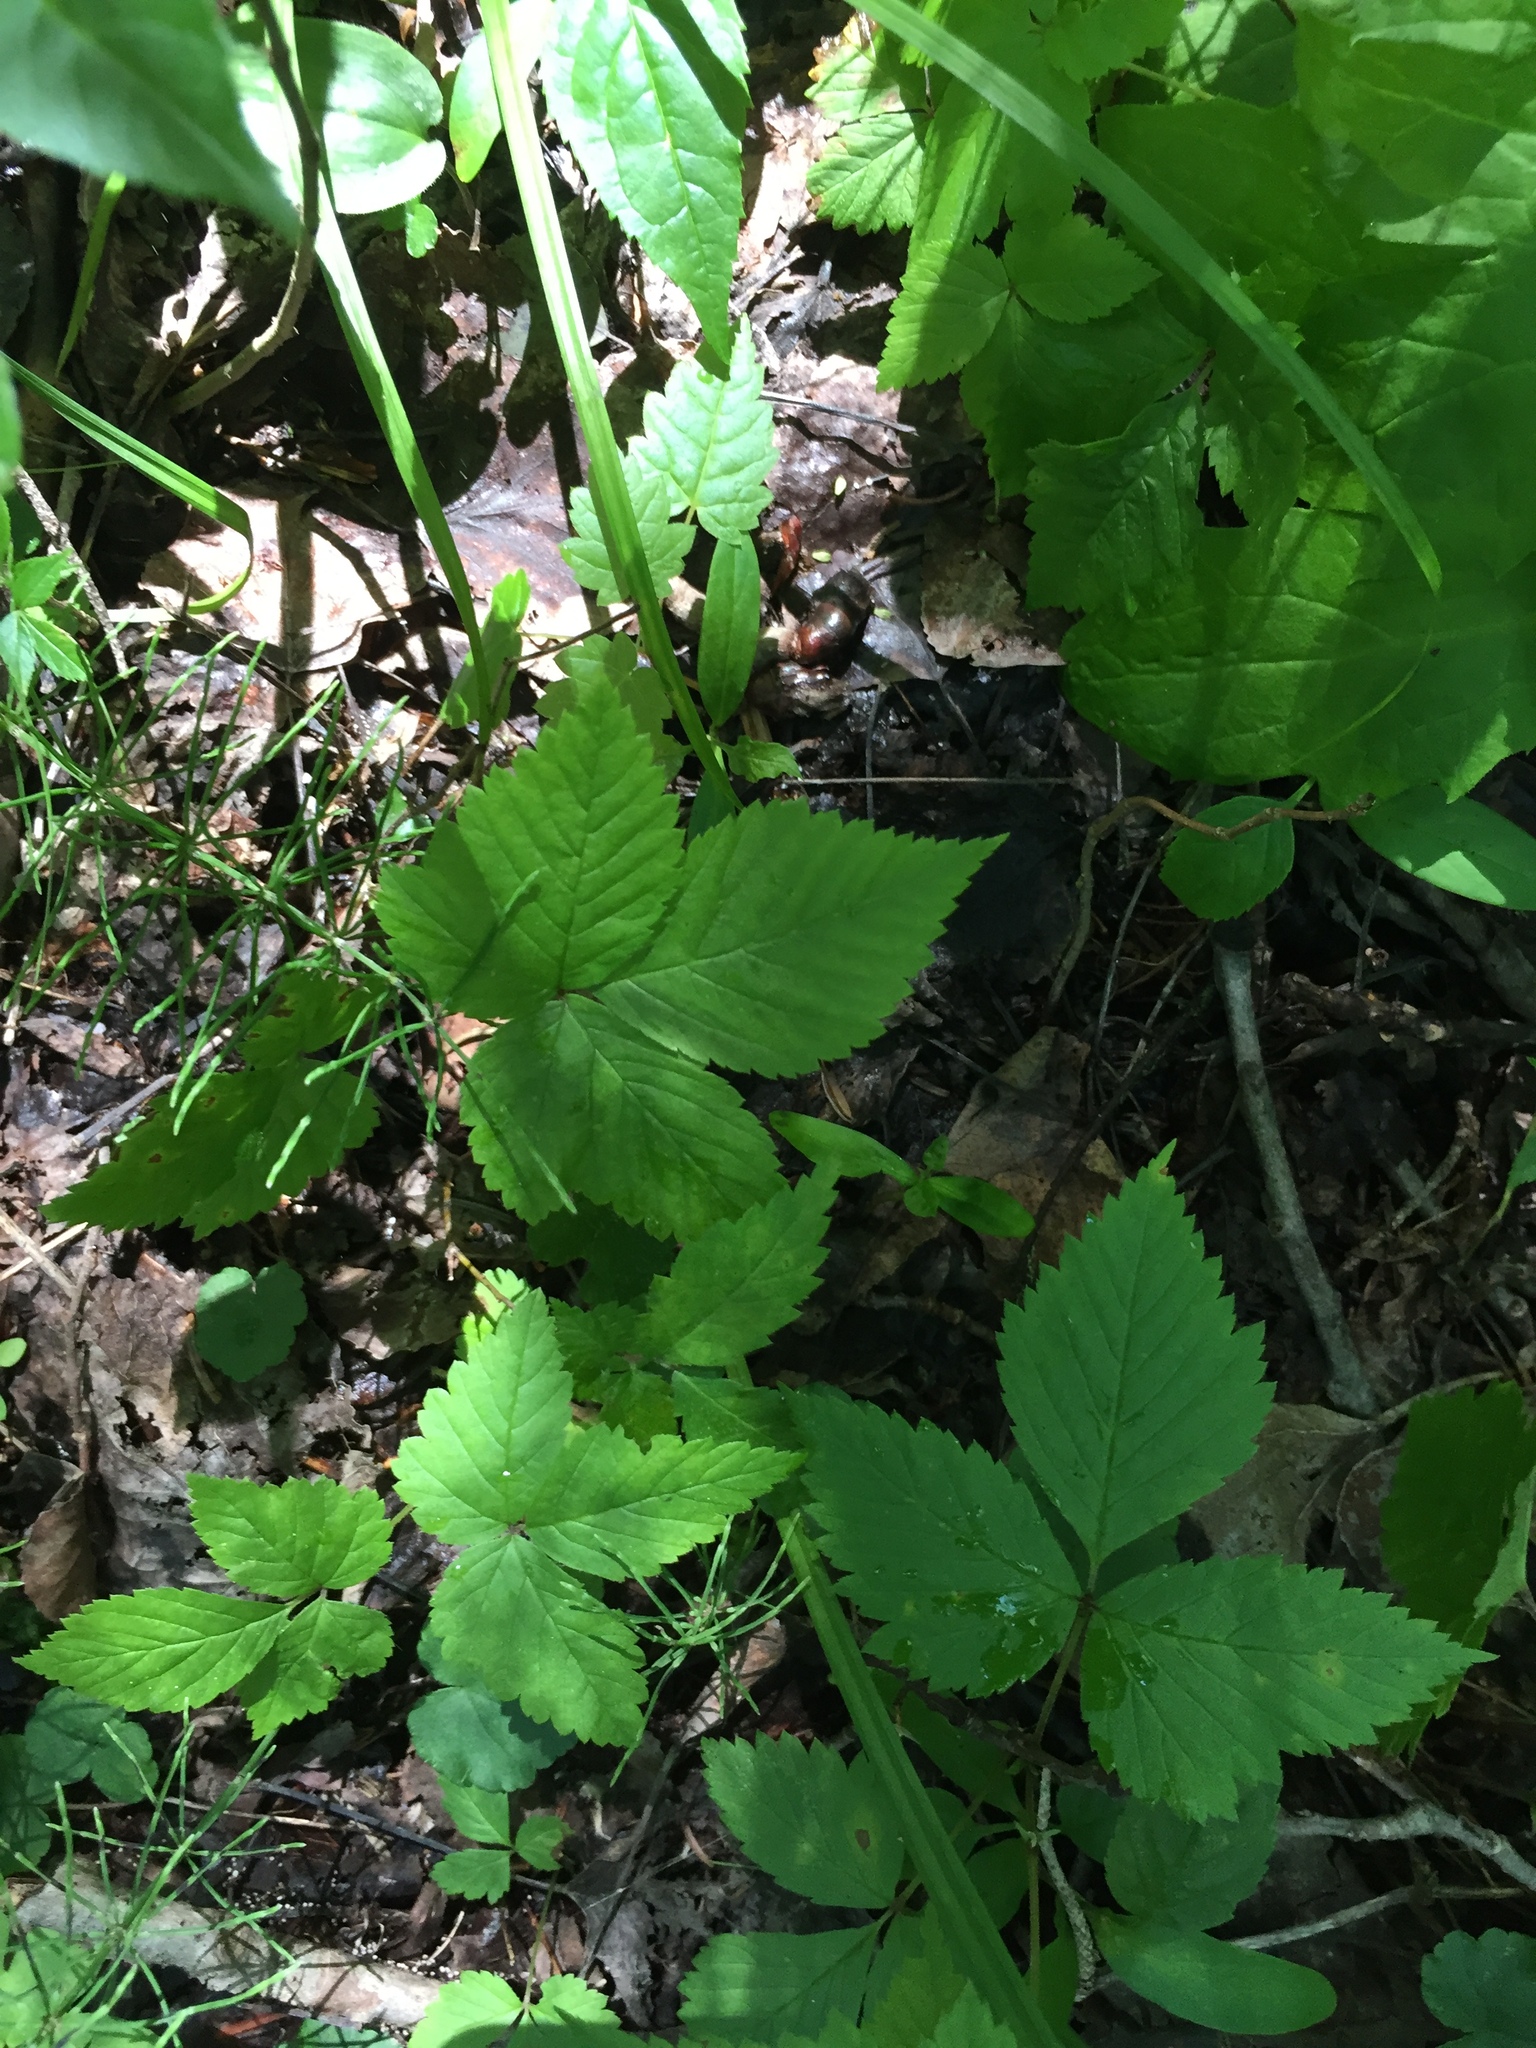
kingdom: Plantae
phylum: Tracheophyta
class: Magnoliopsida
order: Rosales
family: Rosaceae
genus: Rubus
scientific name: Rubus pubescens
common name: Dwarf raspberry
